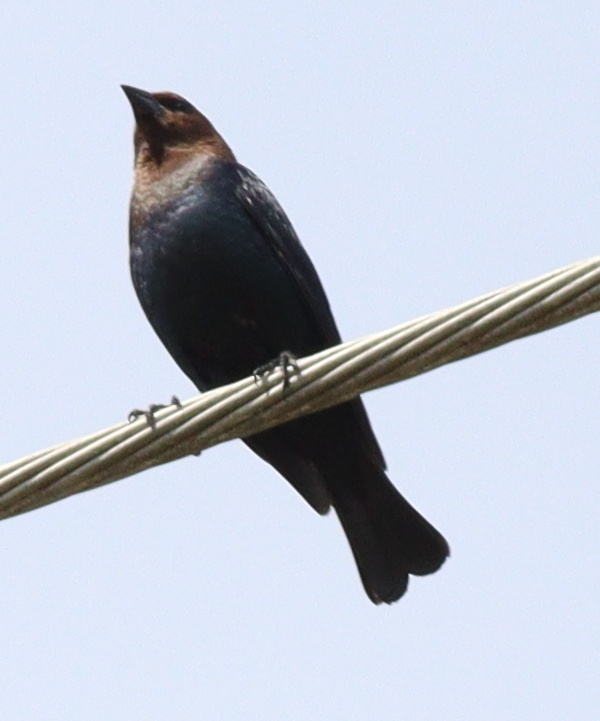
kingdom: Animalia
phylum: Chordata
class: Aves
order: Passeriformes
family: Icteridae
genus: Molothrus
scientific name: Molothrus ater
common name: Brown-headed cowbird
